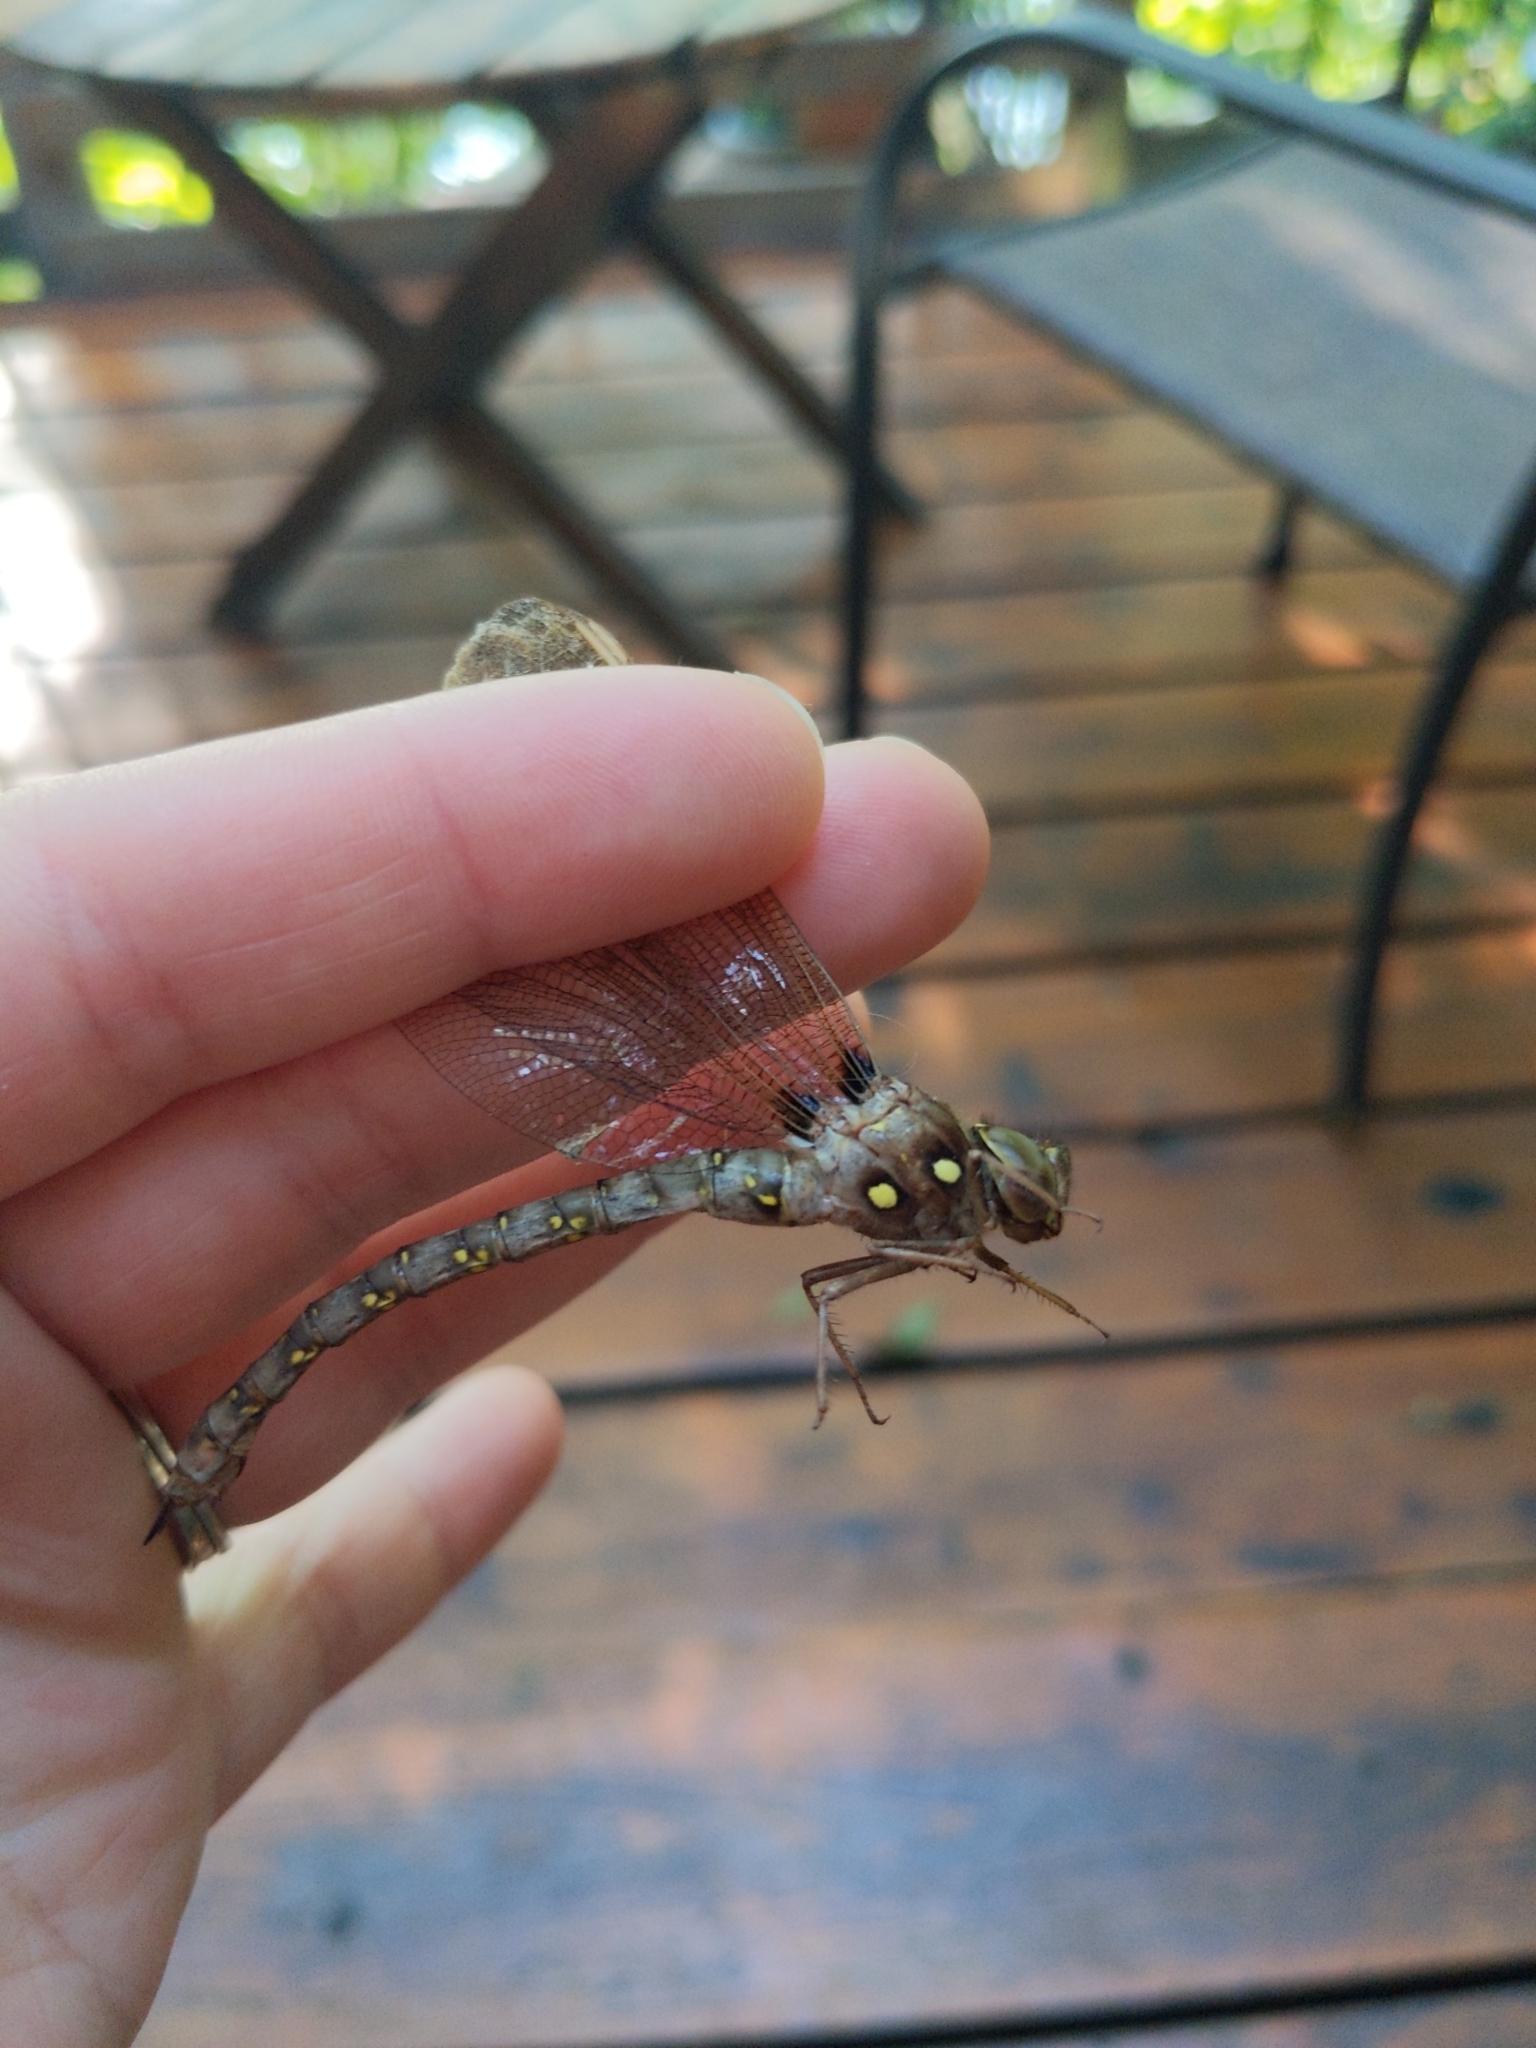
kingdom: Animalia
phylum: Arthropoda
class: Insecta
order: Odonata
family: Aeshnidae
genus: Boyeria
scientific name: Boyeria vinosa
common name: Fawn darner
